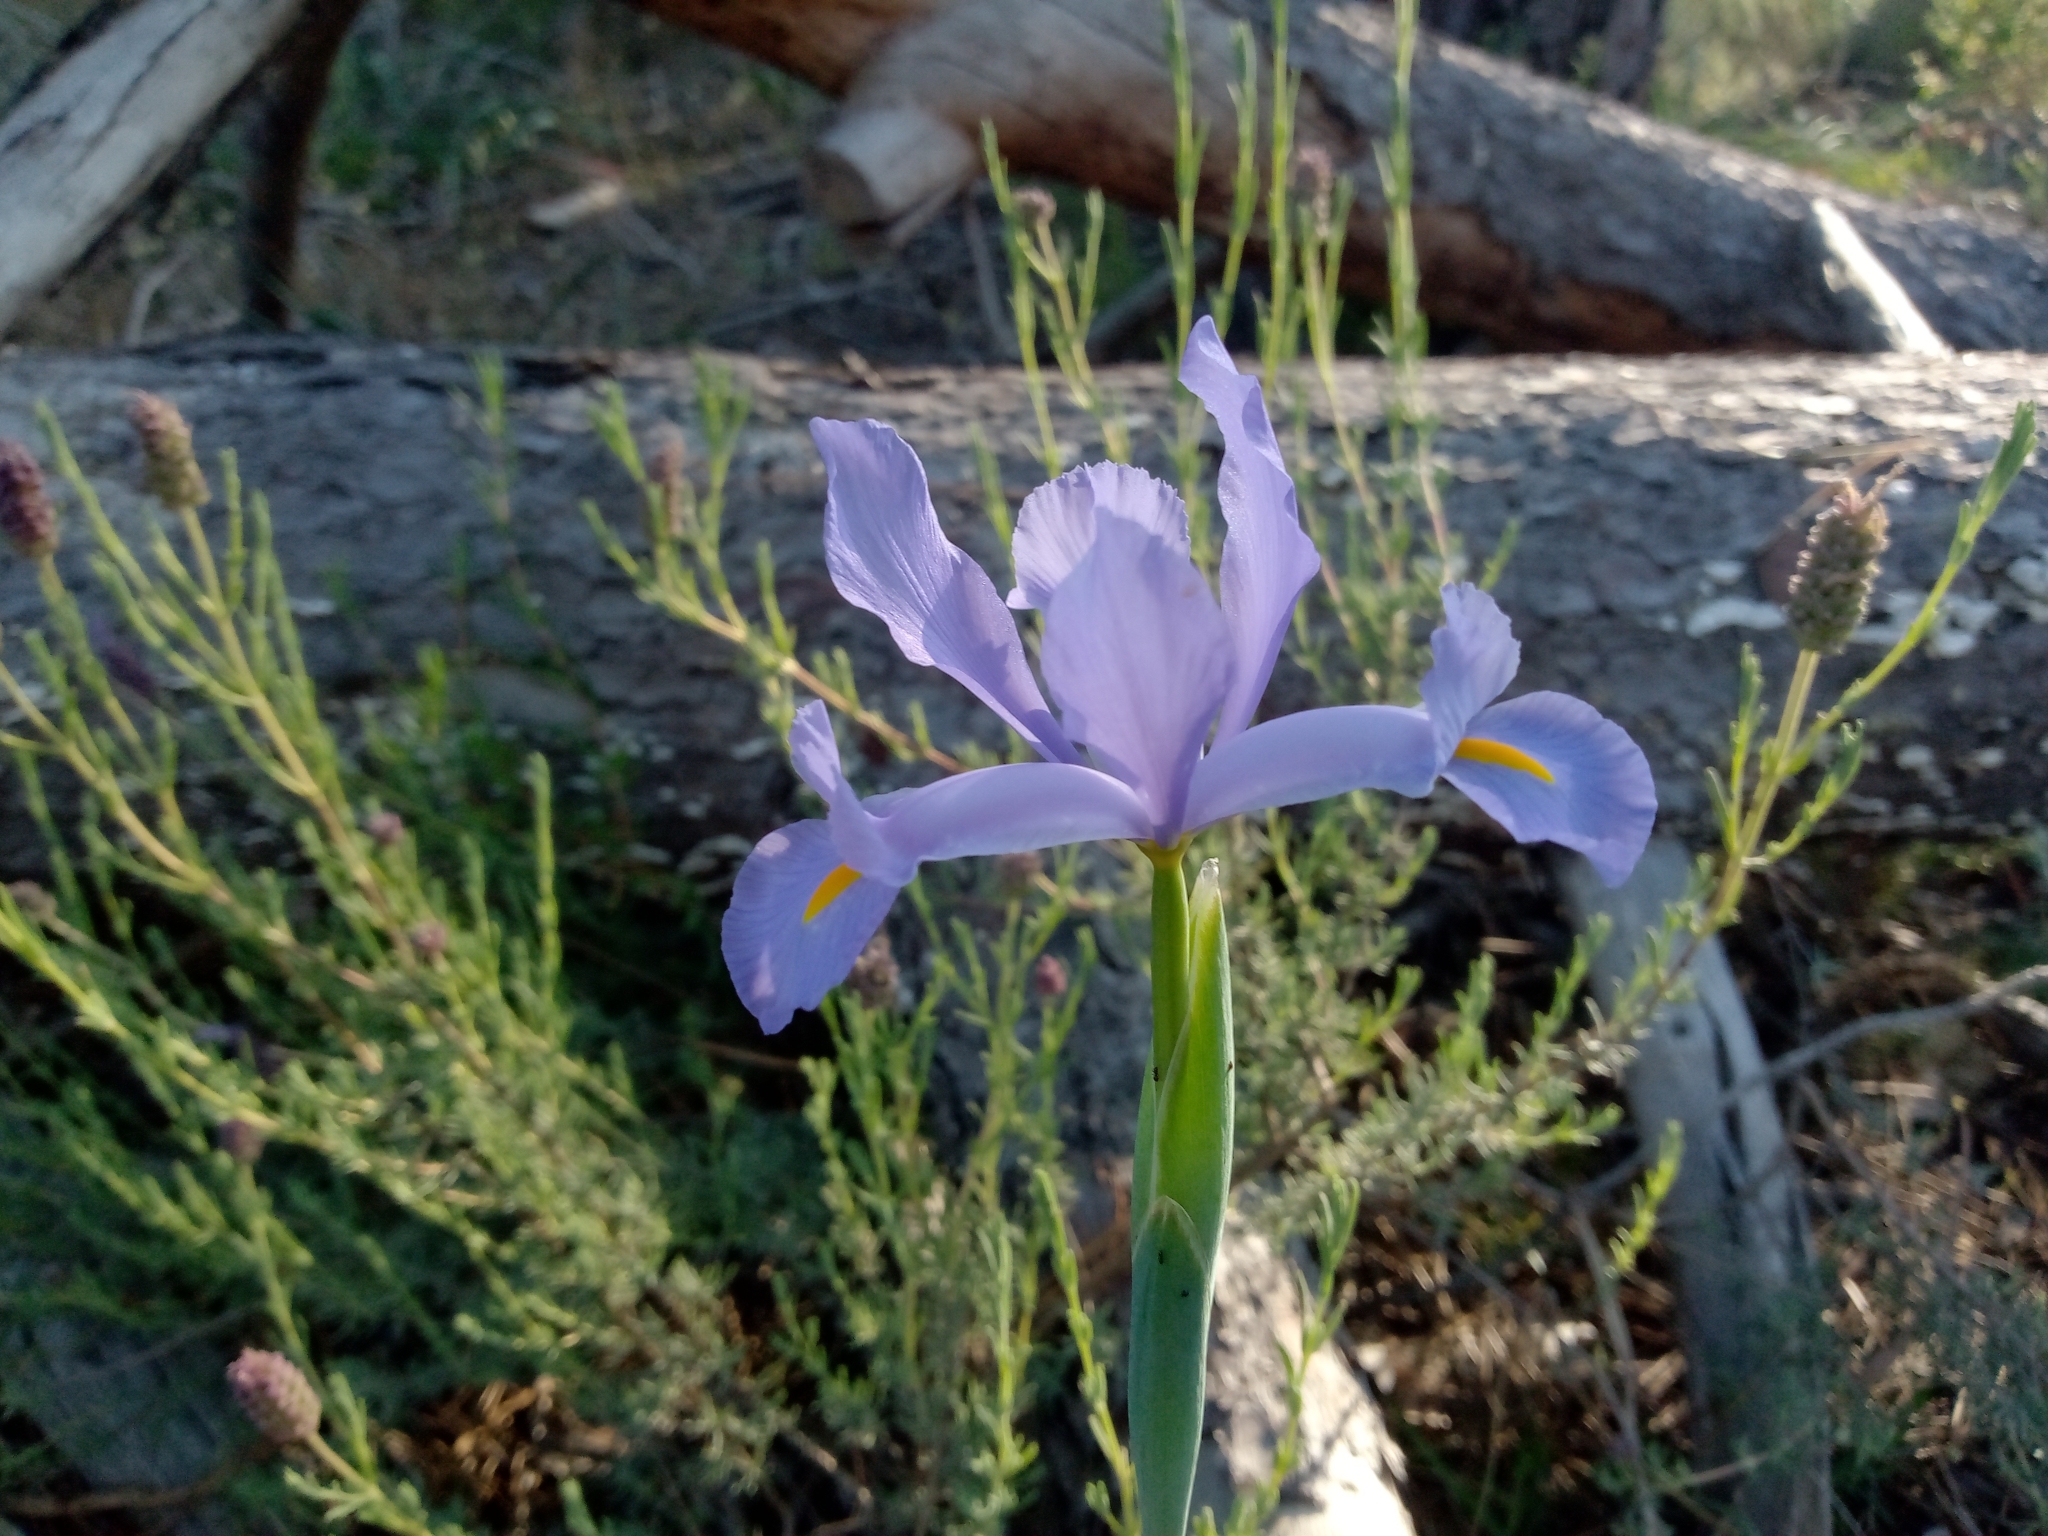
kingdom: Plantae
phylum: Tracheophyta
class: Liliopsida
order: Asparagales
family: Iridaceae
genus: Iris
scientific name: Iris xiphium
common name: Spanish iris
